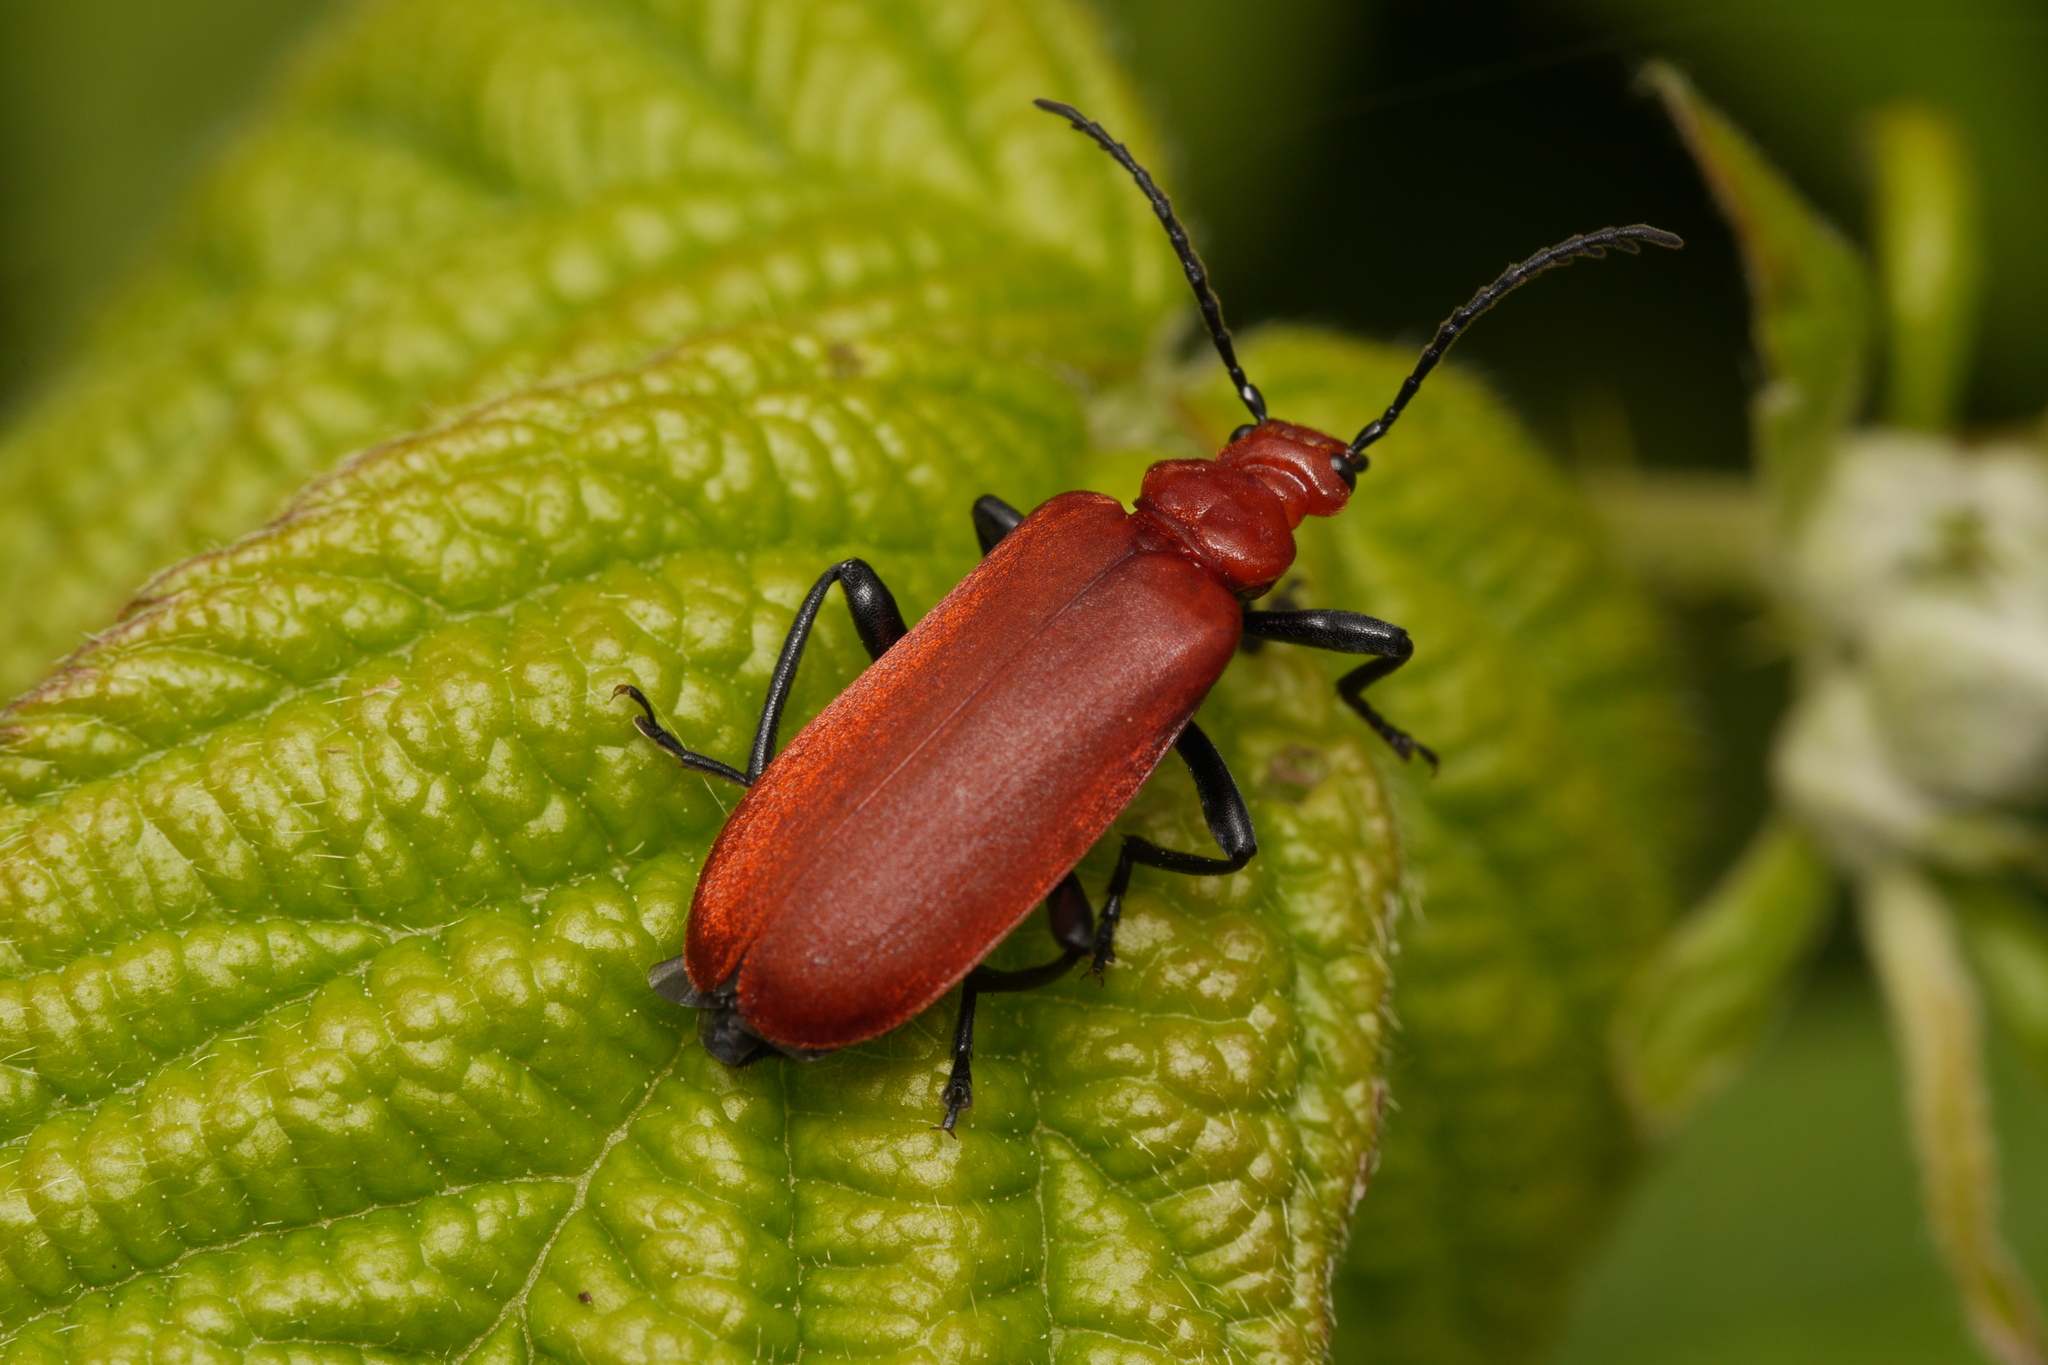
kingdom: Animalia
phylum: Arthropoda
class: Insecta
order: Coleoptera
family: Pyrochroidae
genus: Pyrochroa
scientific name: Pyrochroa serraticornis
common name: Red-headed cardinal beetle
